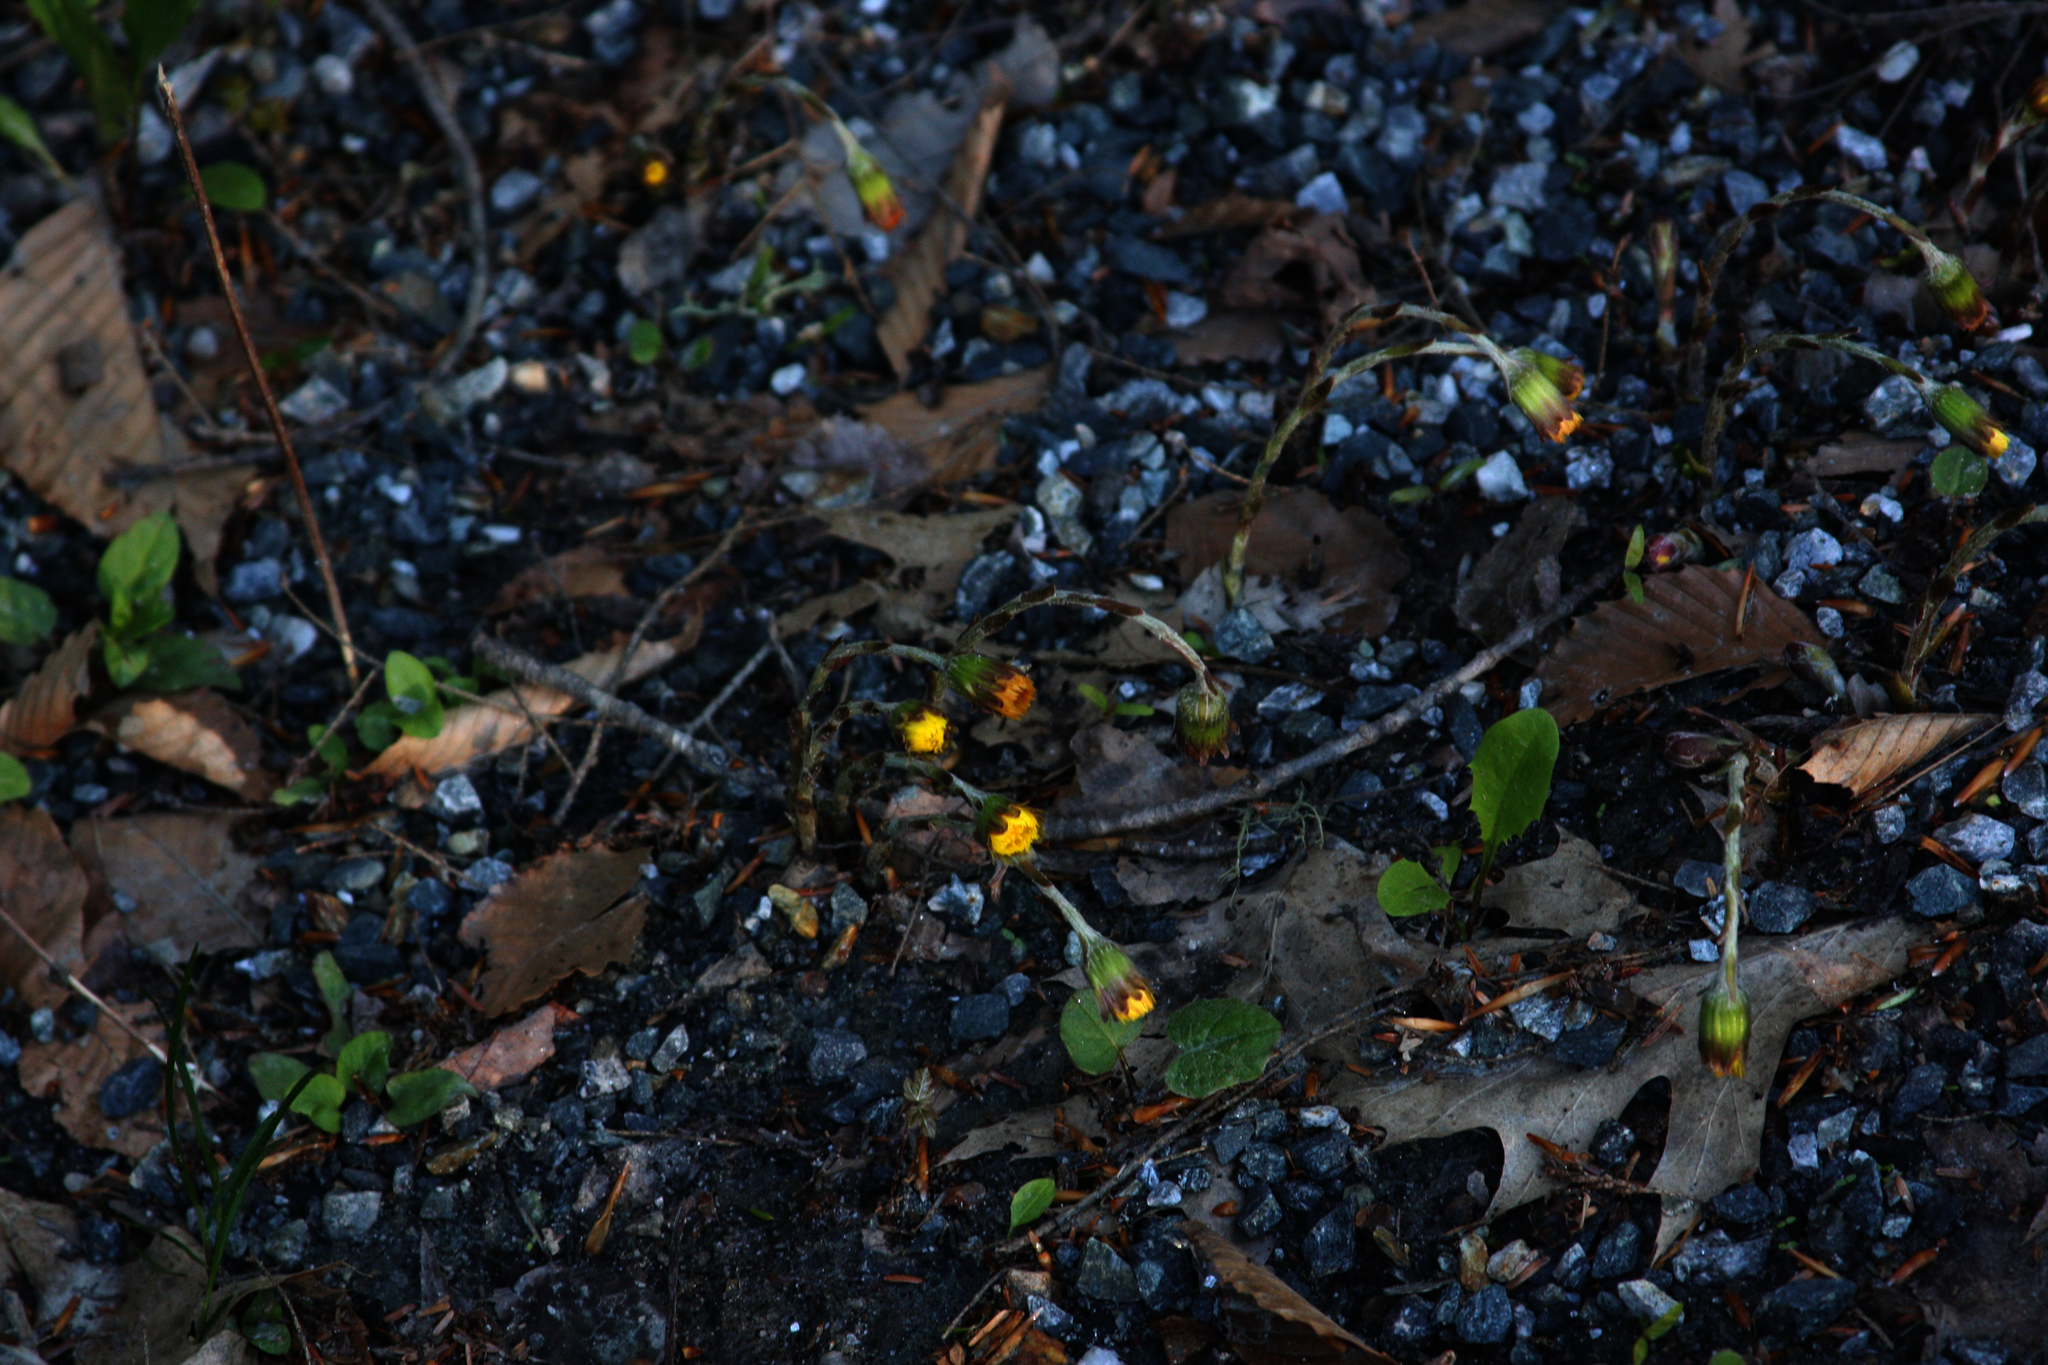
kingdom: Plantae
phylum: Tracheophyta
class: Magnoliopsida
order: Asterales
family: Asteraceae
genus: Tussilago
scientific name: Tussilago farfara
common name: Coltsfoot
